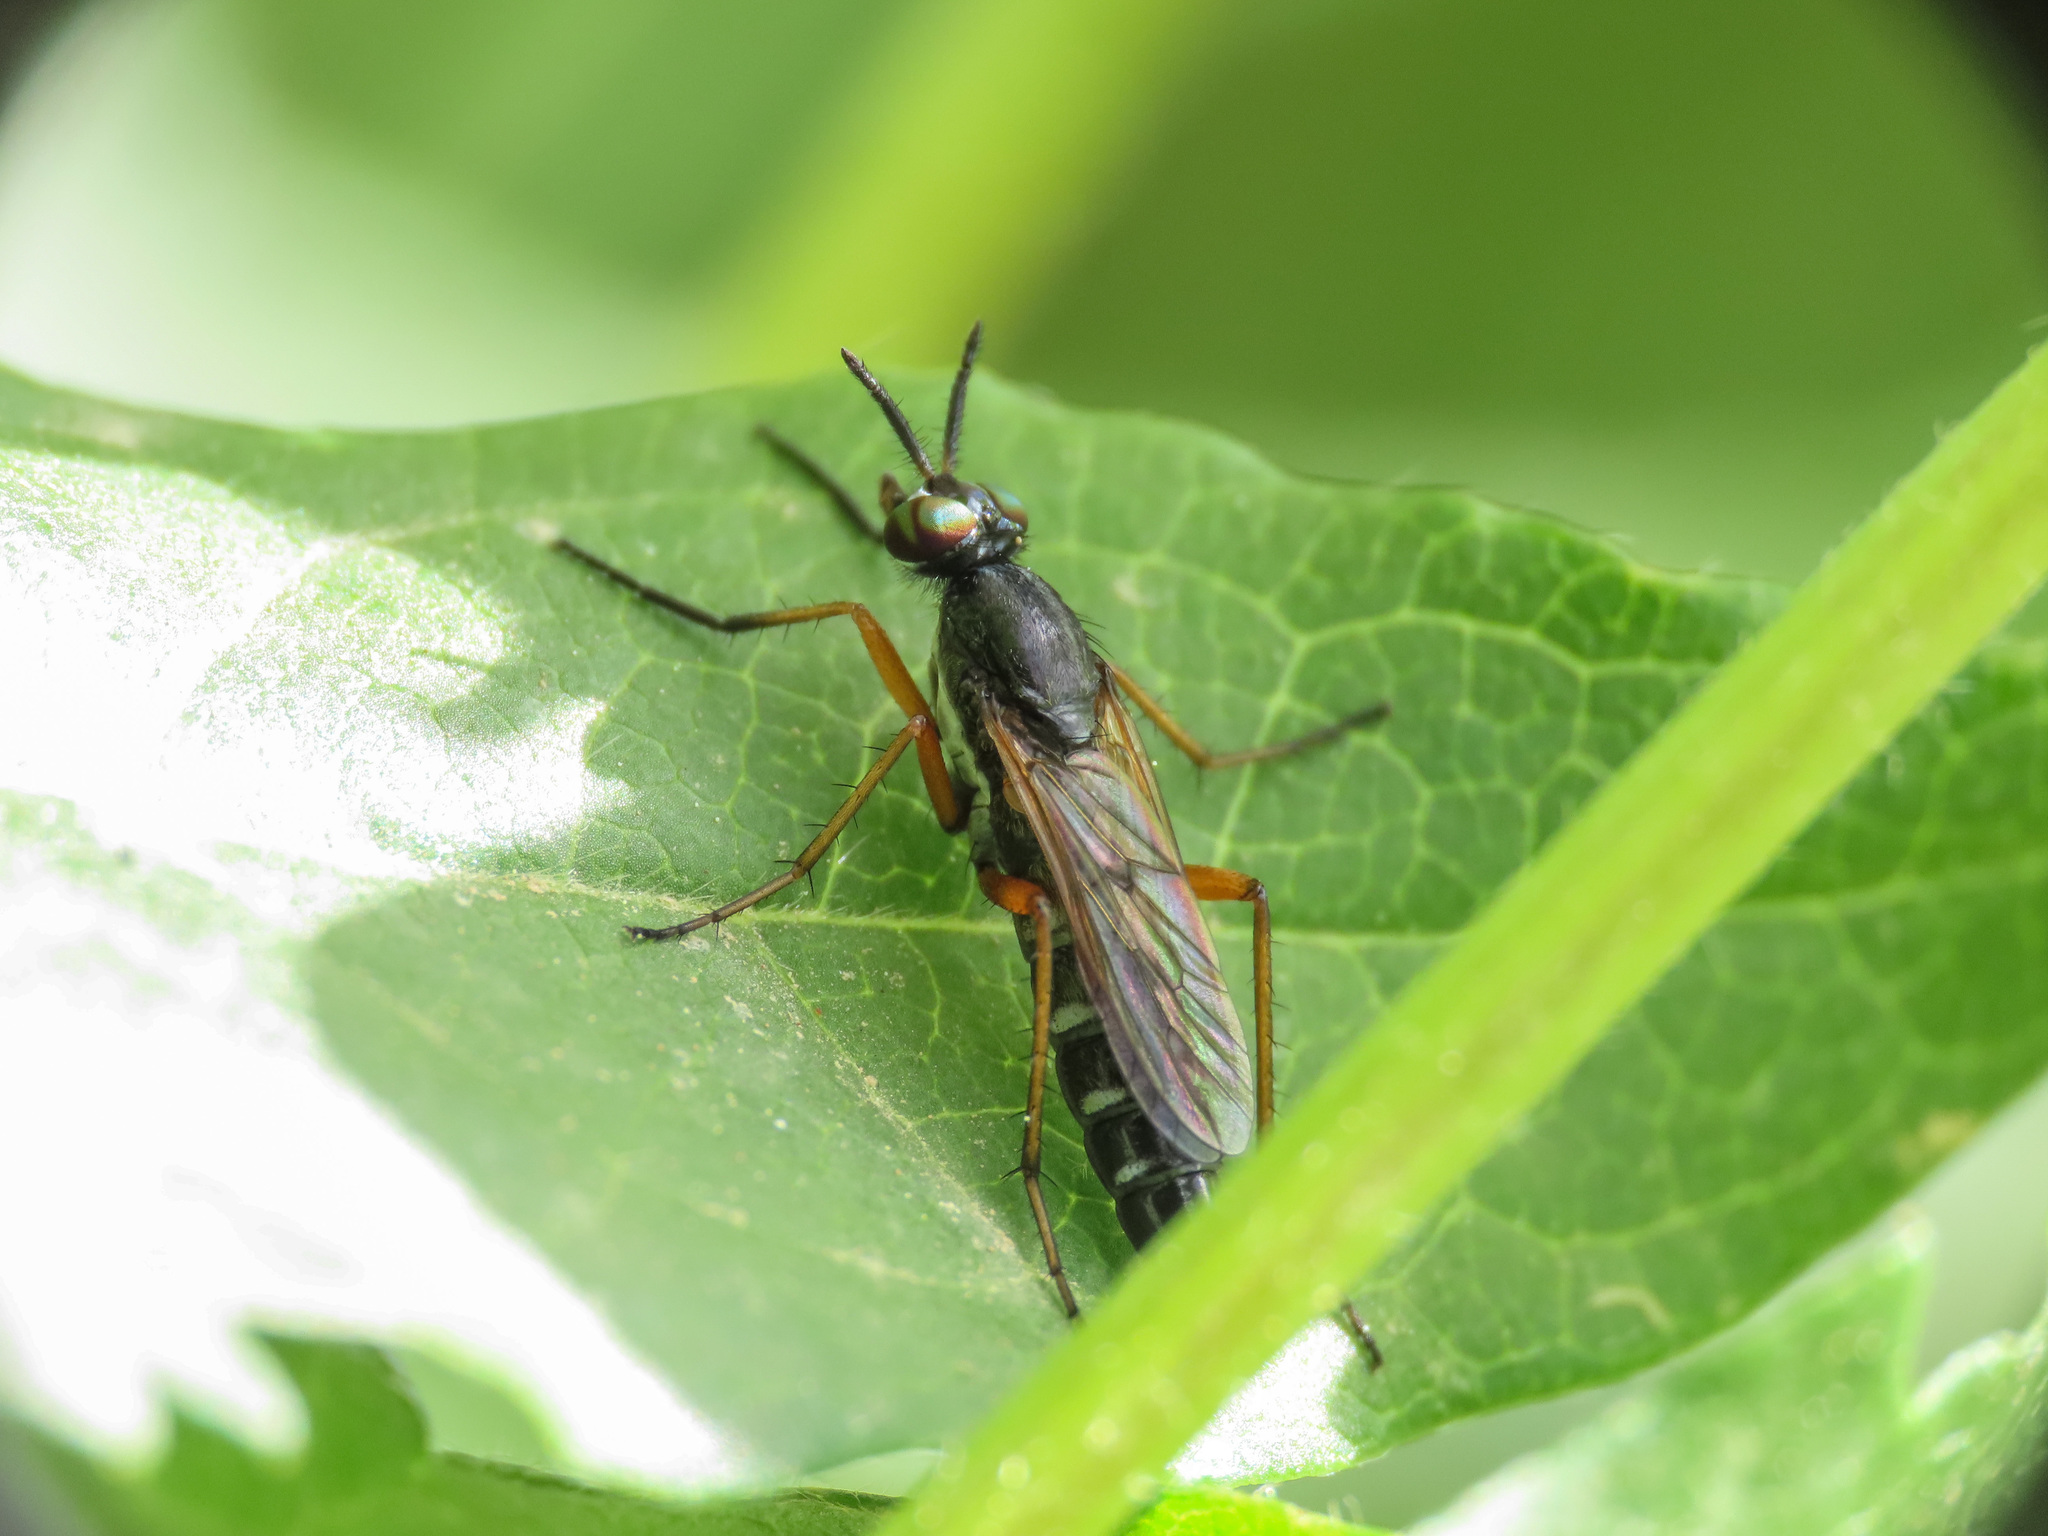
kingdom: Animalia
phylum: Arthropoda
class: Insecta
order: Diptera
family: Therevidae
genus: Euphycus
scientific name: Euphycus dispar
